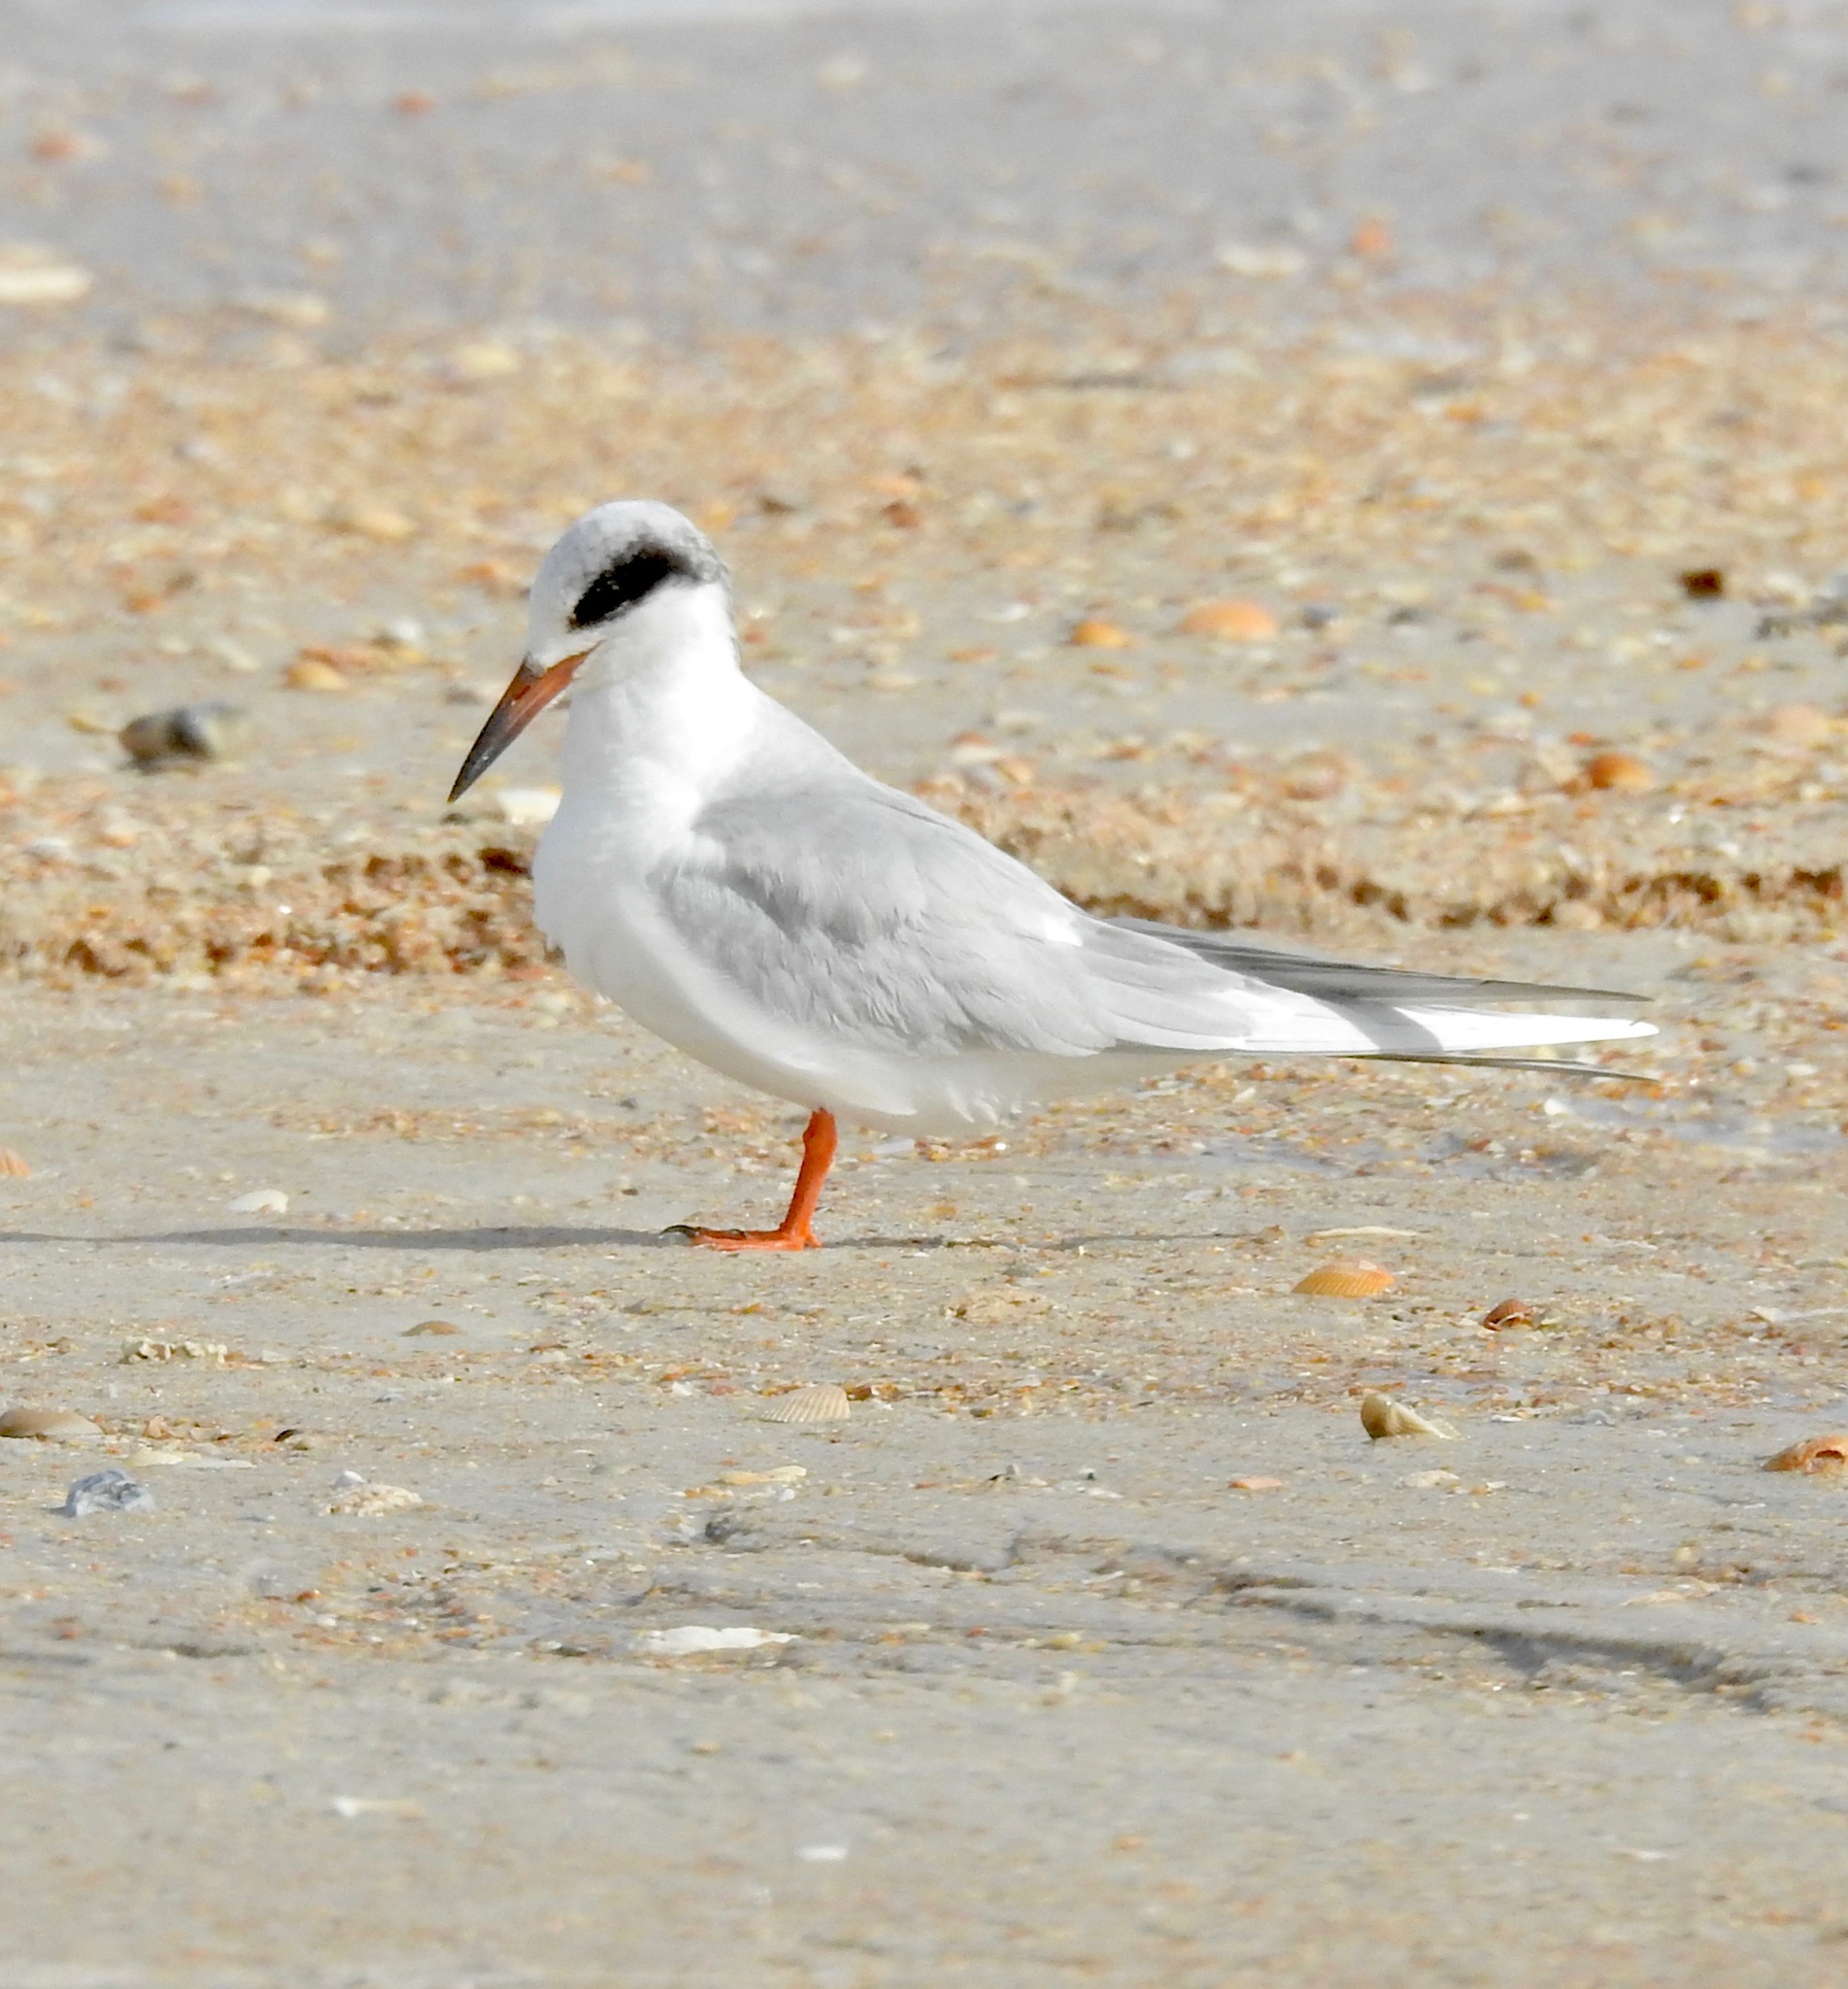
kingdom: Animalia
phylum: Chordata
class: Aves
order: Charadriiformes
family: Laridae
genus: Sterna
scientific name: Sterna forsteri
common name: Forster's tern
